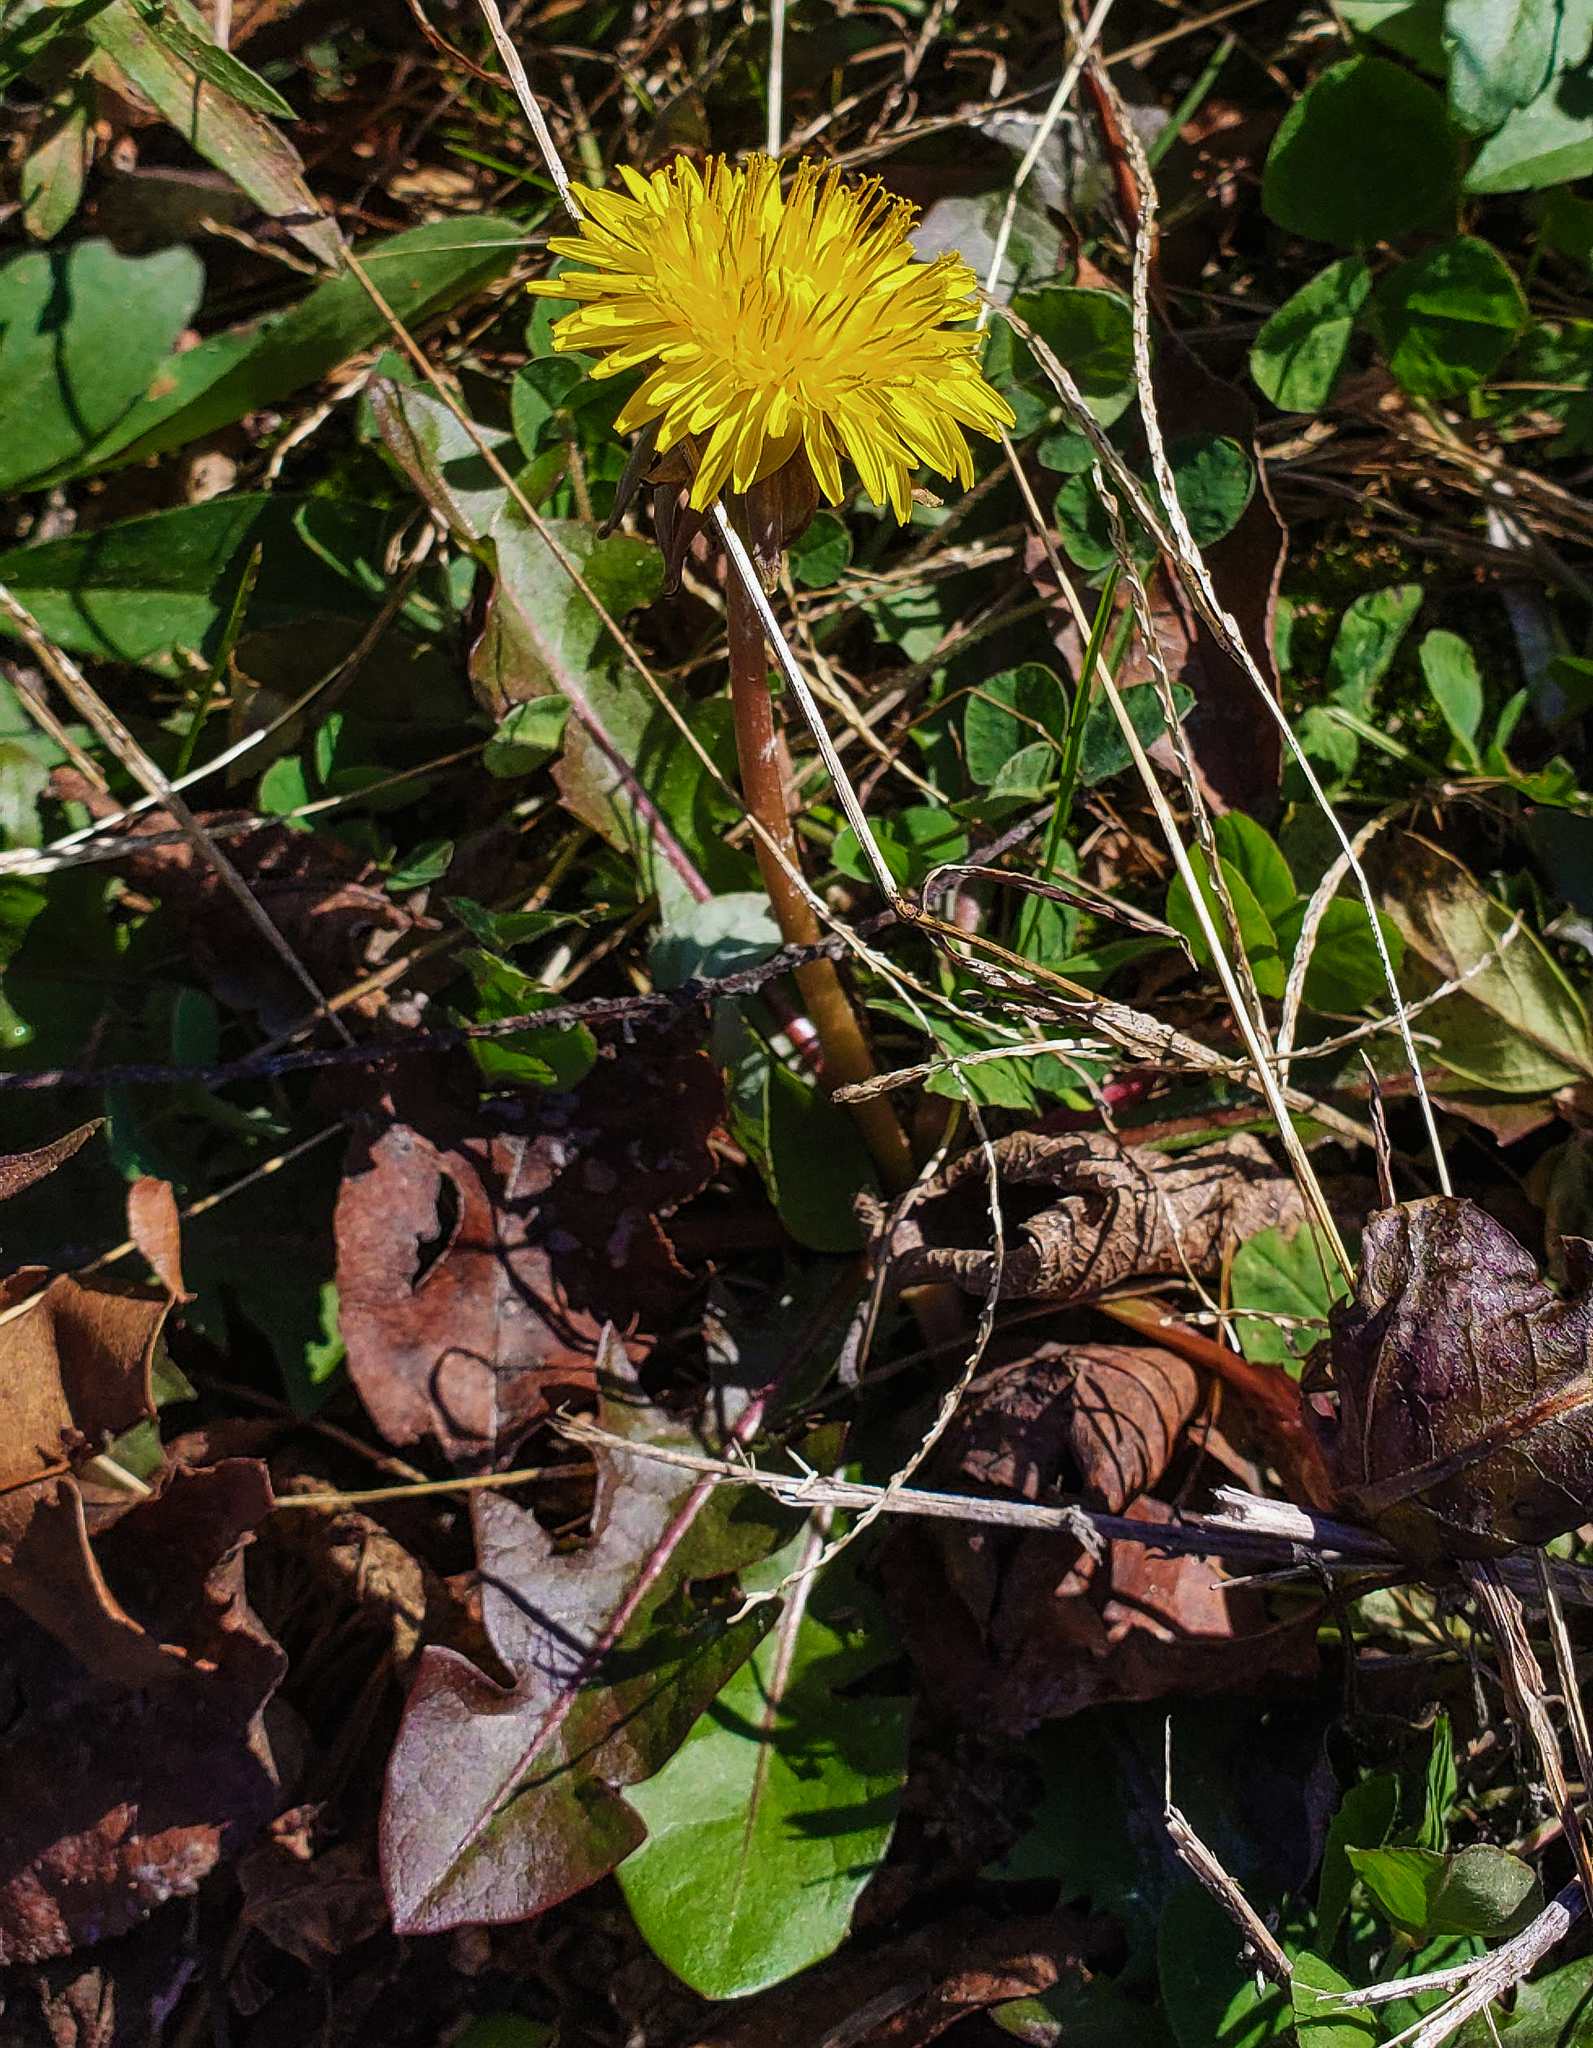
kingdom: Plantae
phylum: Tracheophyta
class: Magnoliopsida
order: Asterales
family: Asteraceae
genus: Taraxacum
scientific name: Taraxacum officinale
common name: Common dandelion
